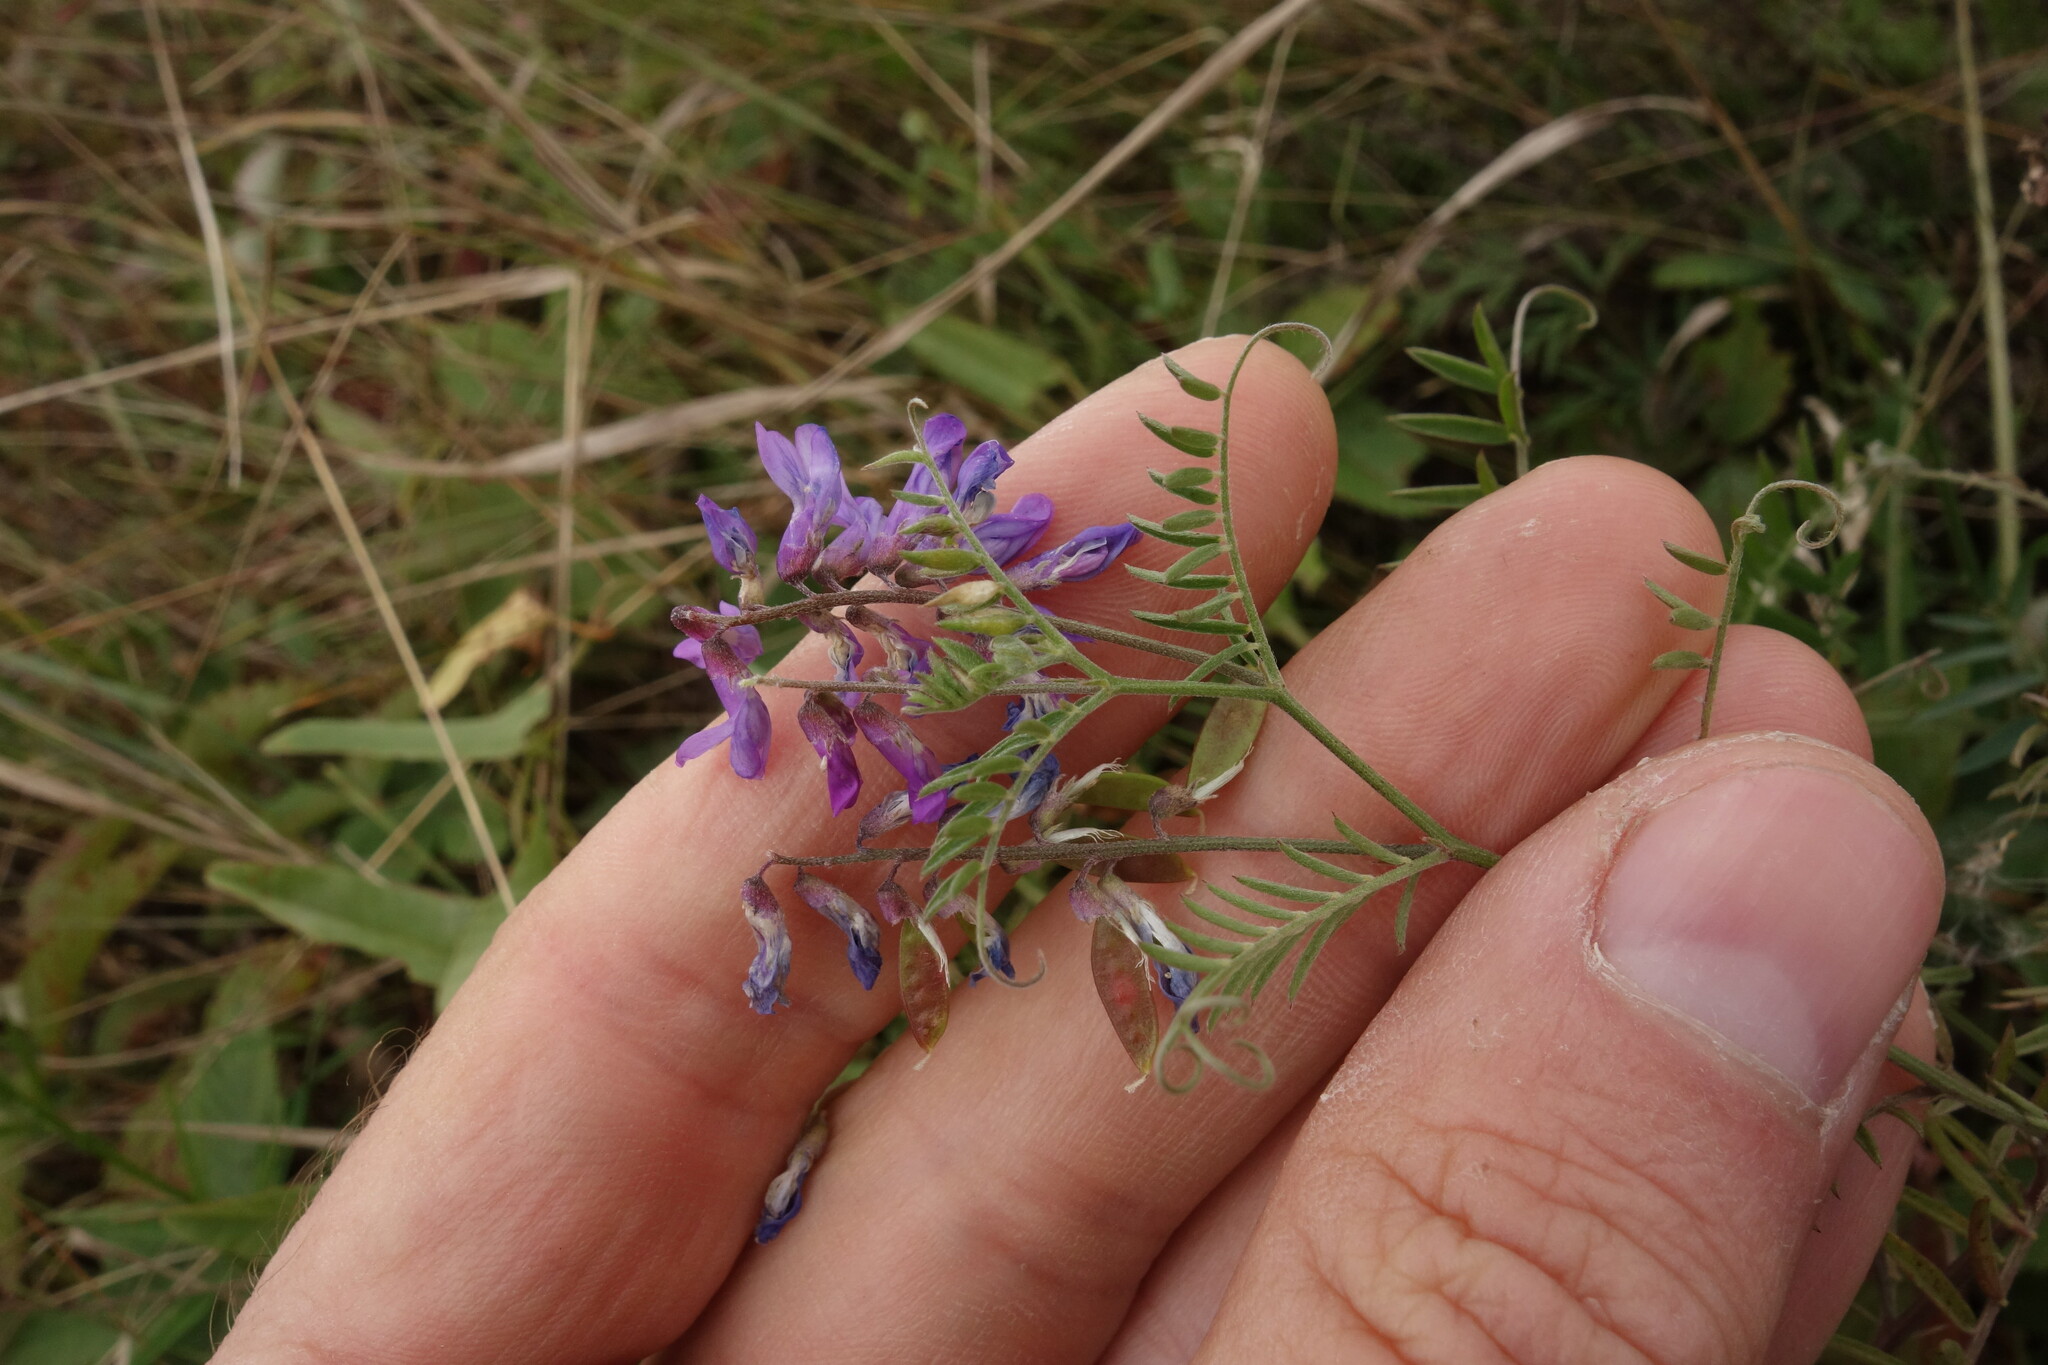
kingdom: Plantae
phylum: Tracheophyta
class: Magnoliopsida
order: Fabales
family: Fabaceae
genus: Vicia
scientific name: Vicia cracca
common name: Bird vetch
